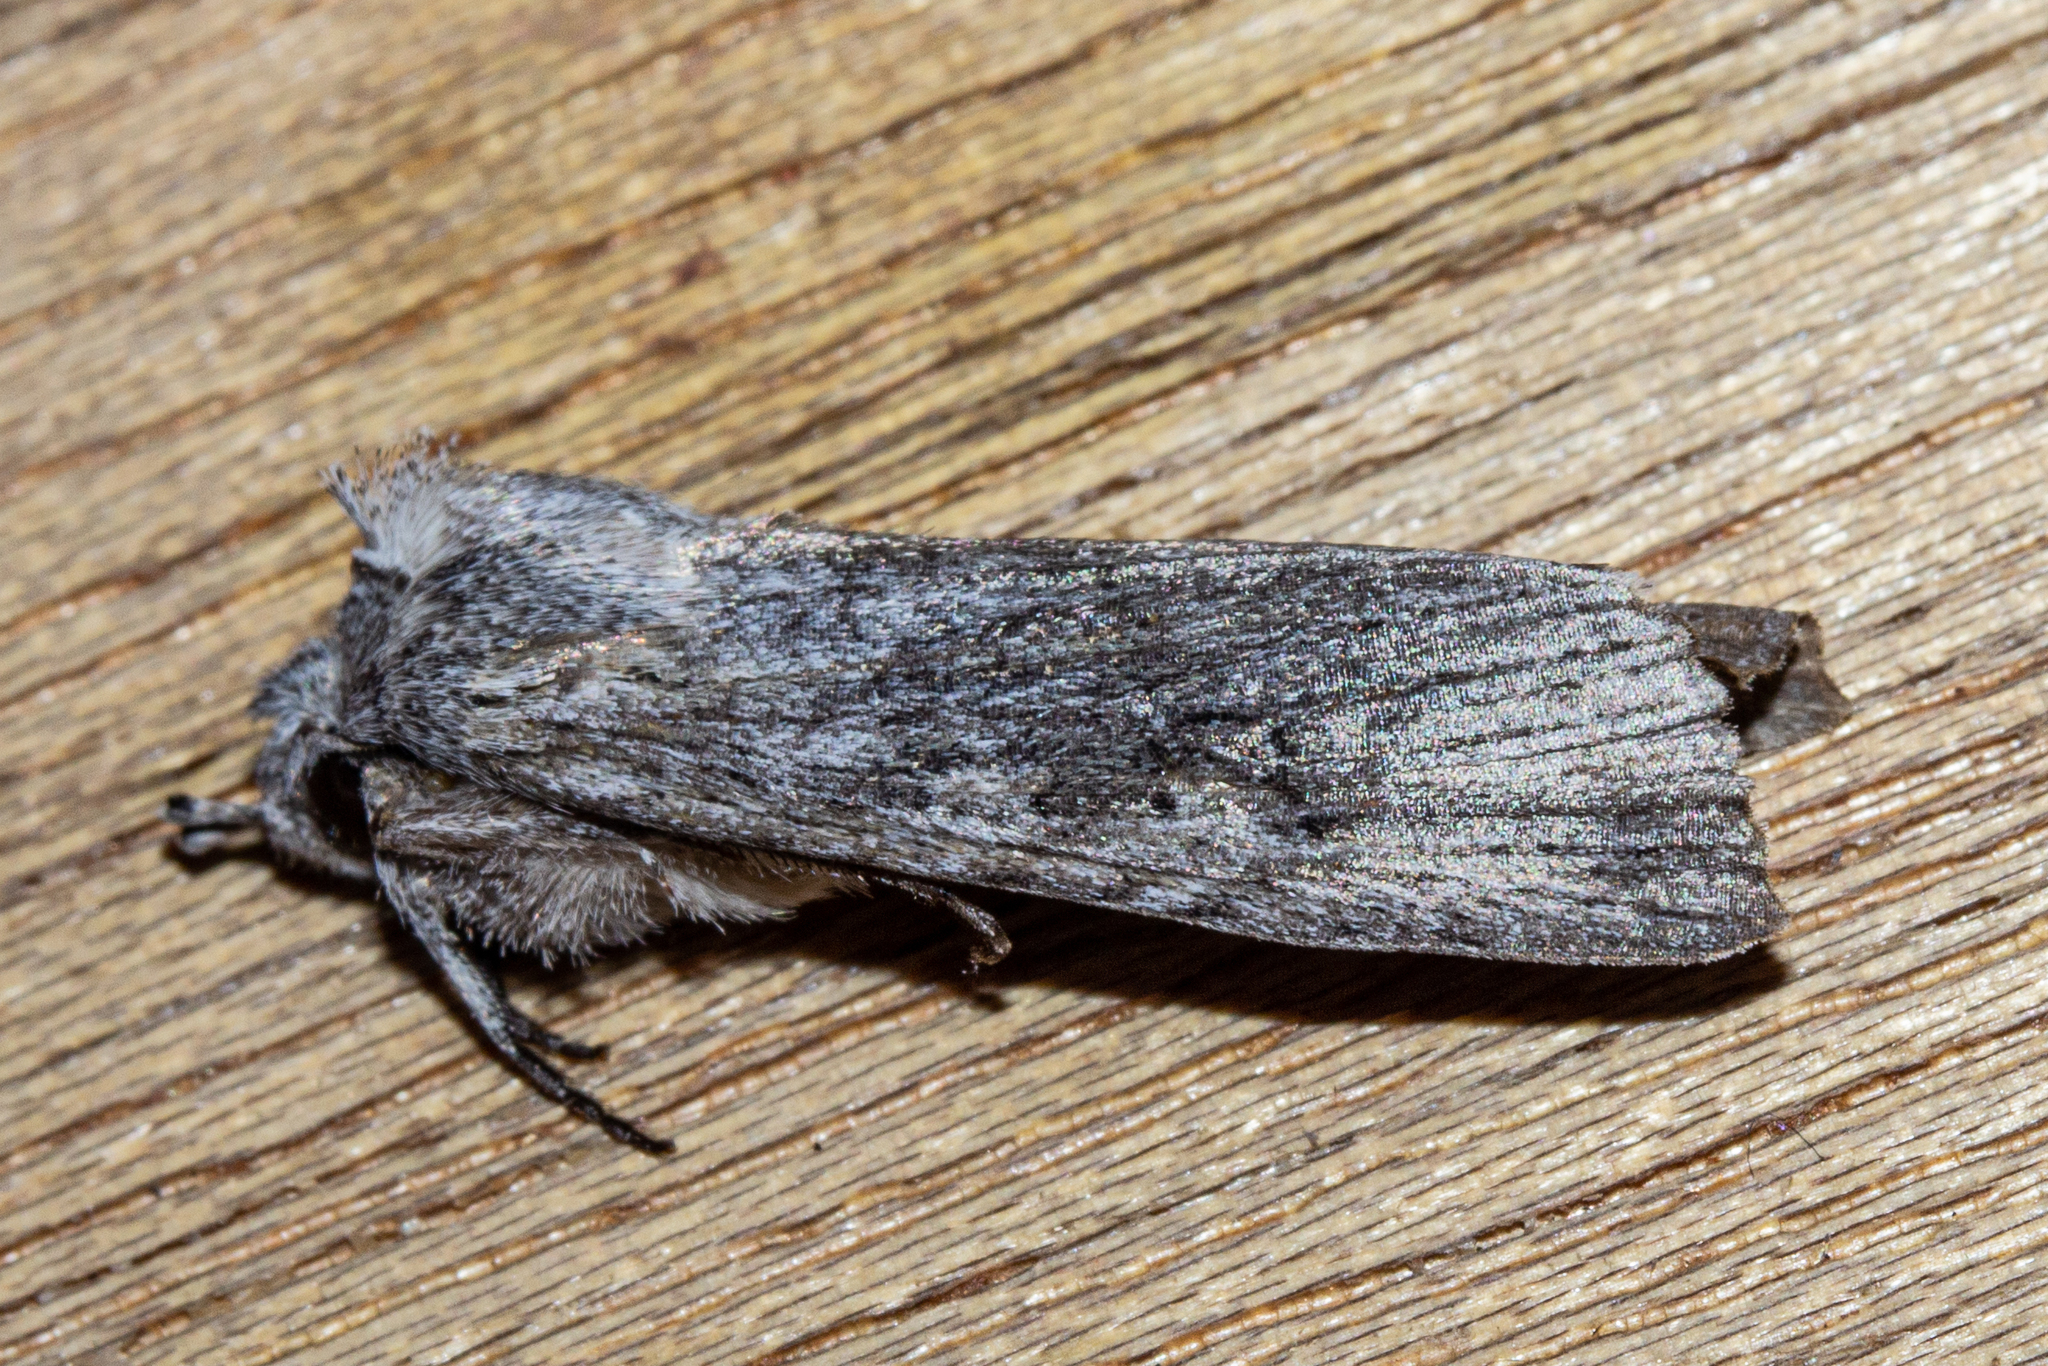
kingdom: Animalia
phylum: Arthropoda
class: Insecta
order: Lepidoptera
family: Noctuidae
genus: Physetica
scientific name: Physetica phricias
